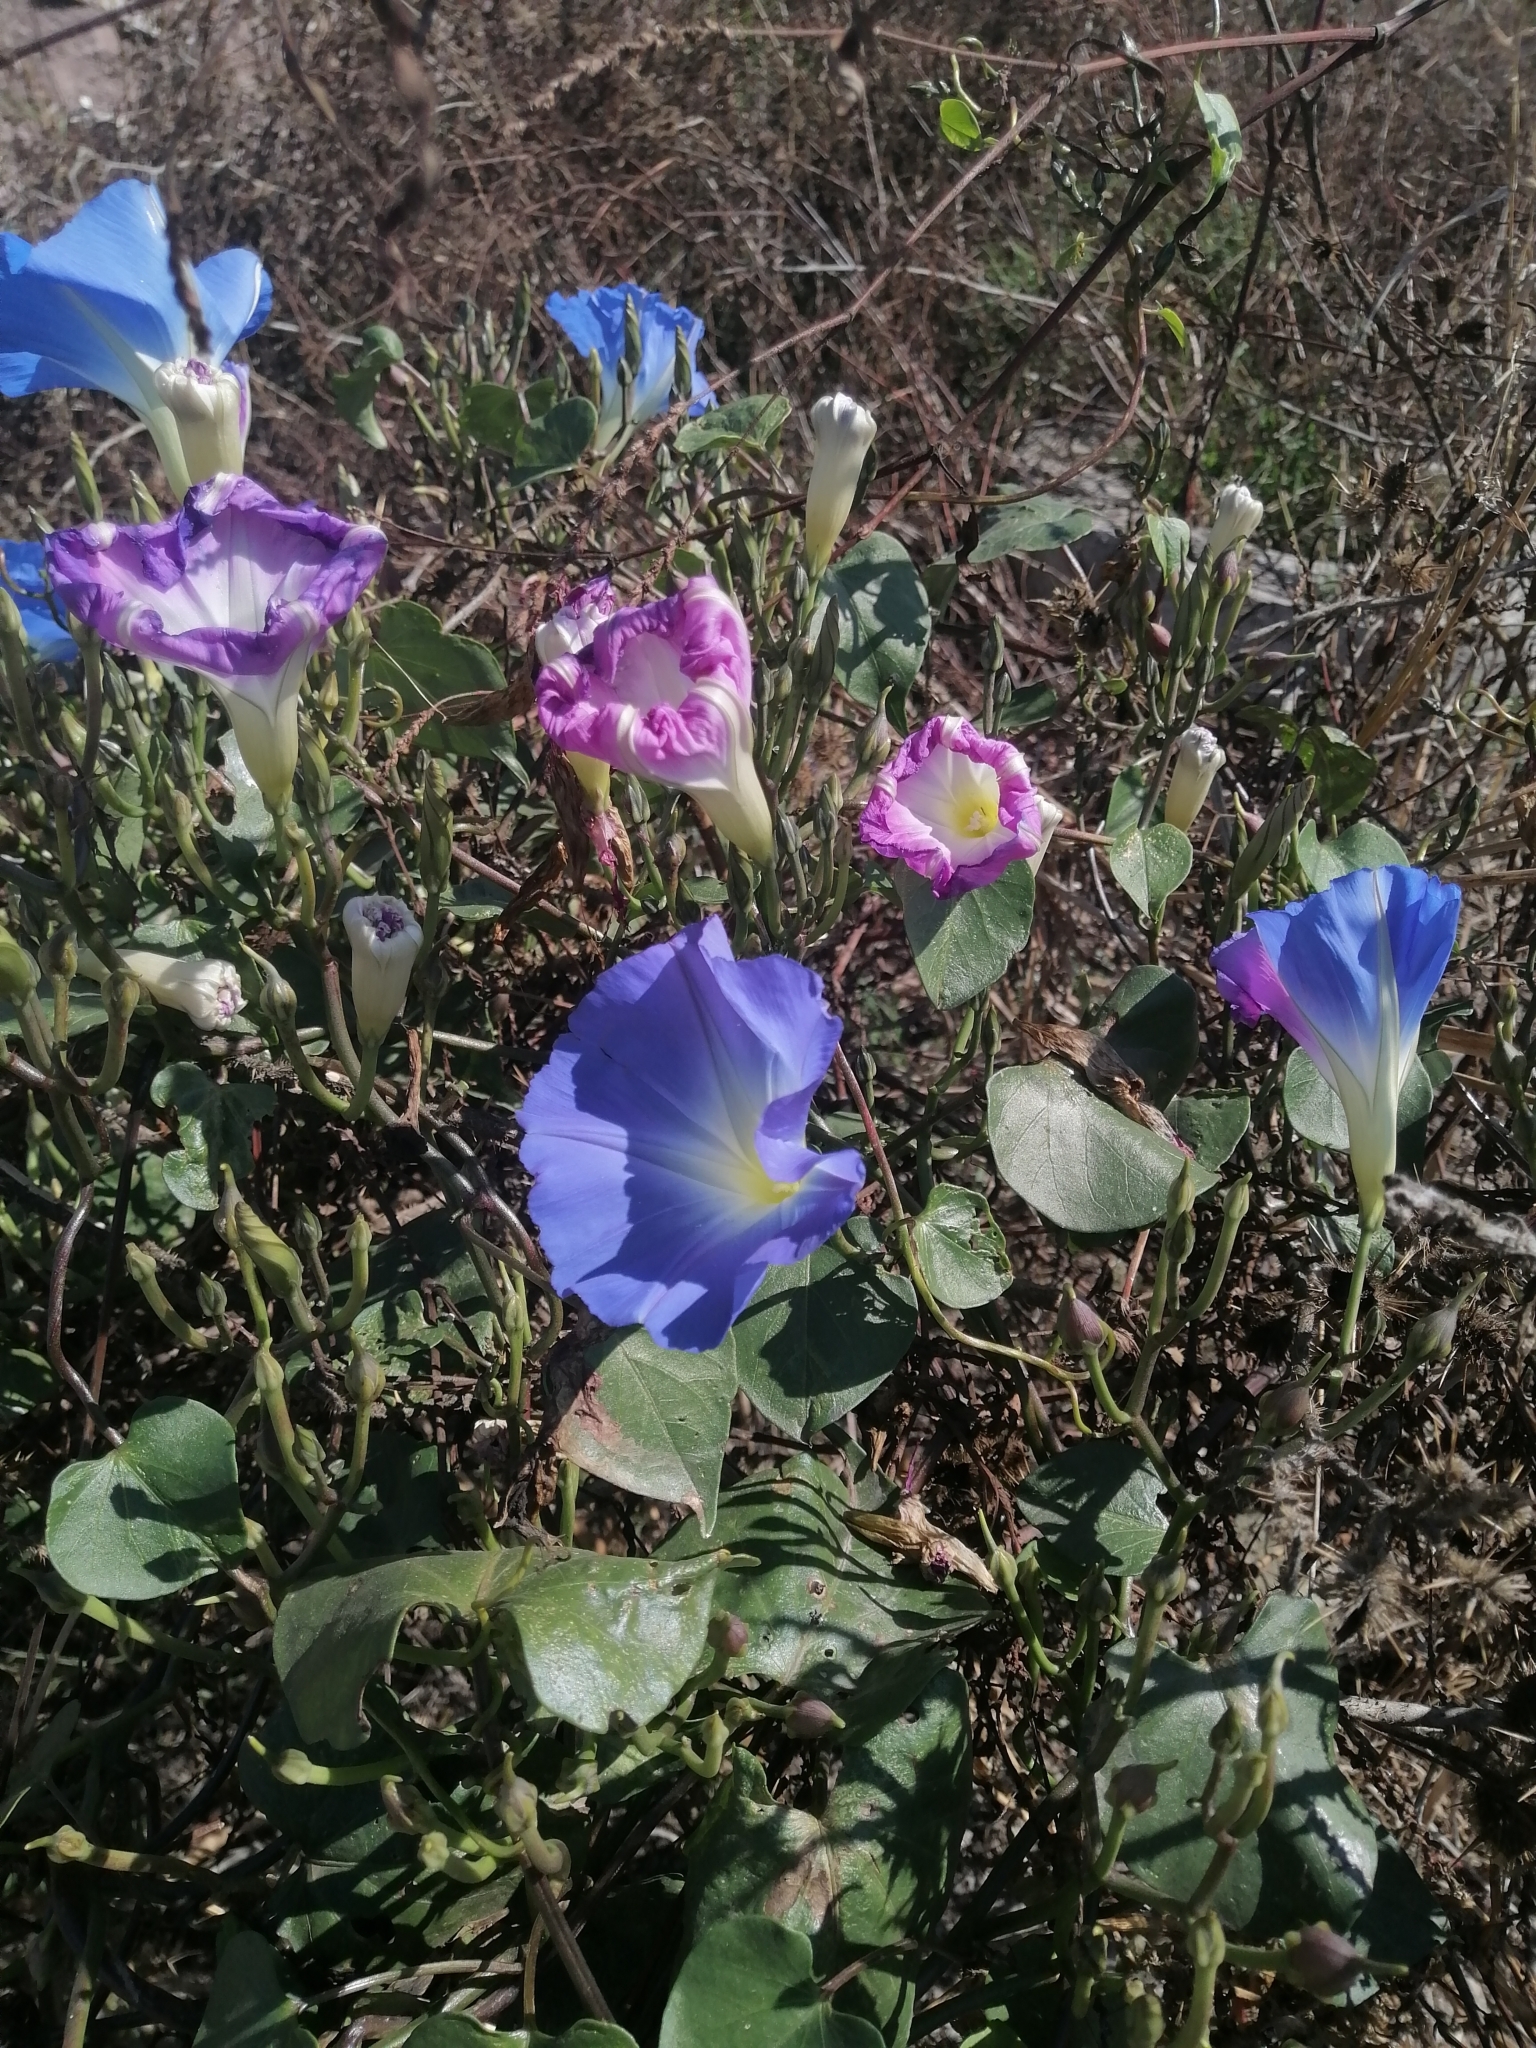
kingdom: Plantae
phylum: Tracheophyta
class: Magnoliopsida
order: Solanales
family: Convolvulaceae
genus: Ipomoea
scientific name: Ipomoea tricolor
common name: Morning-glory
